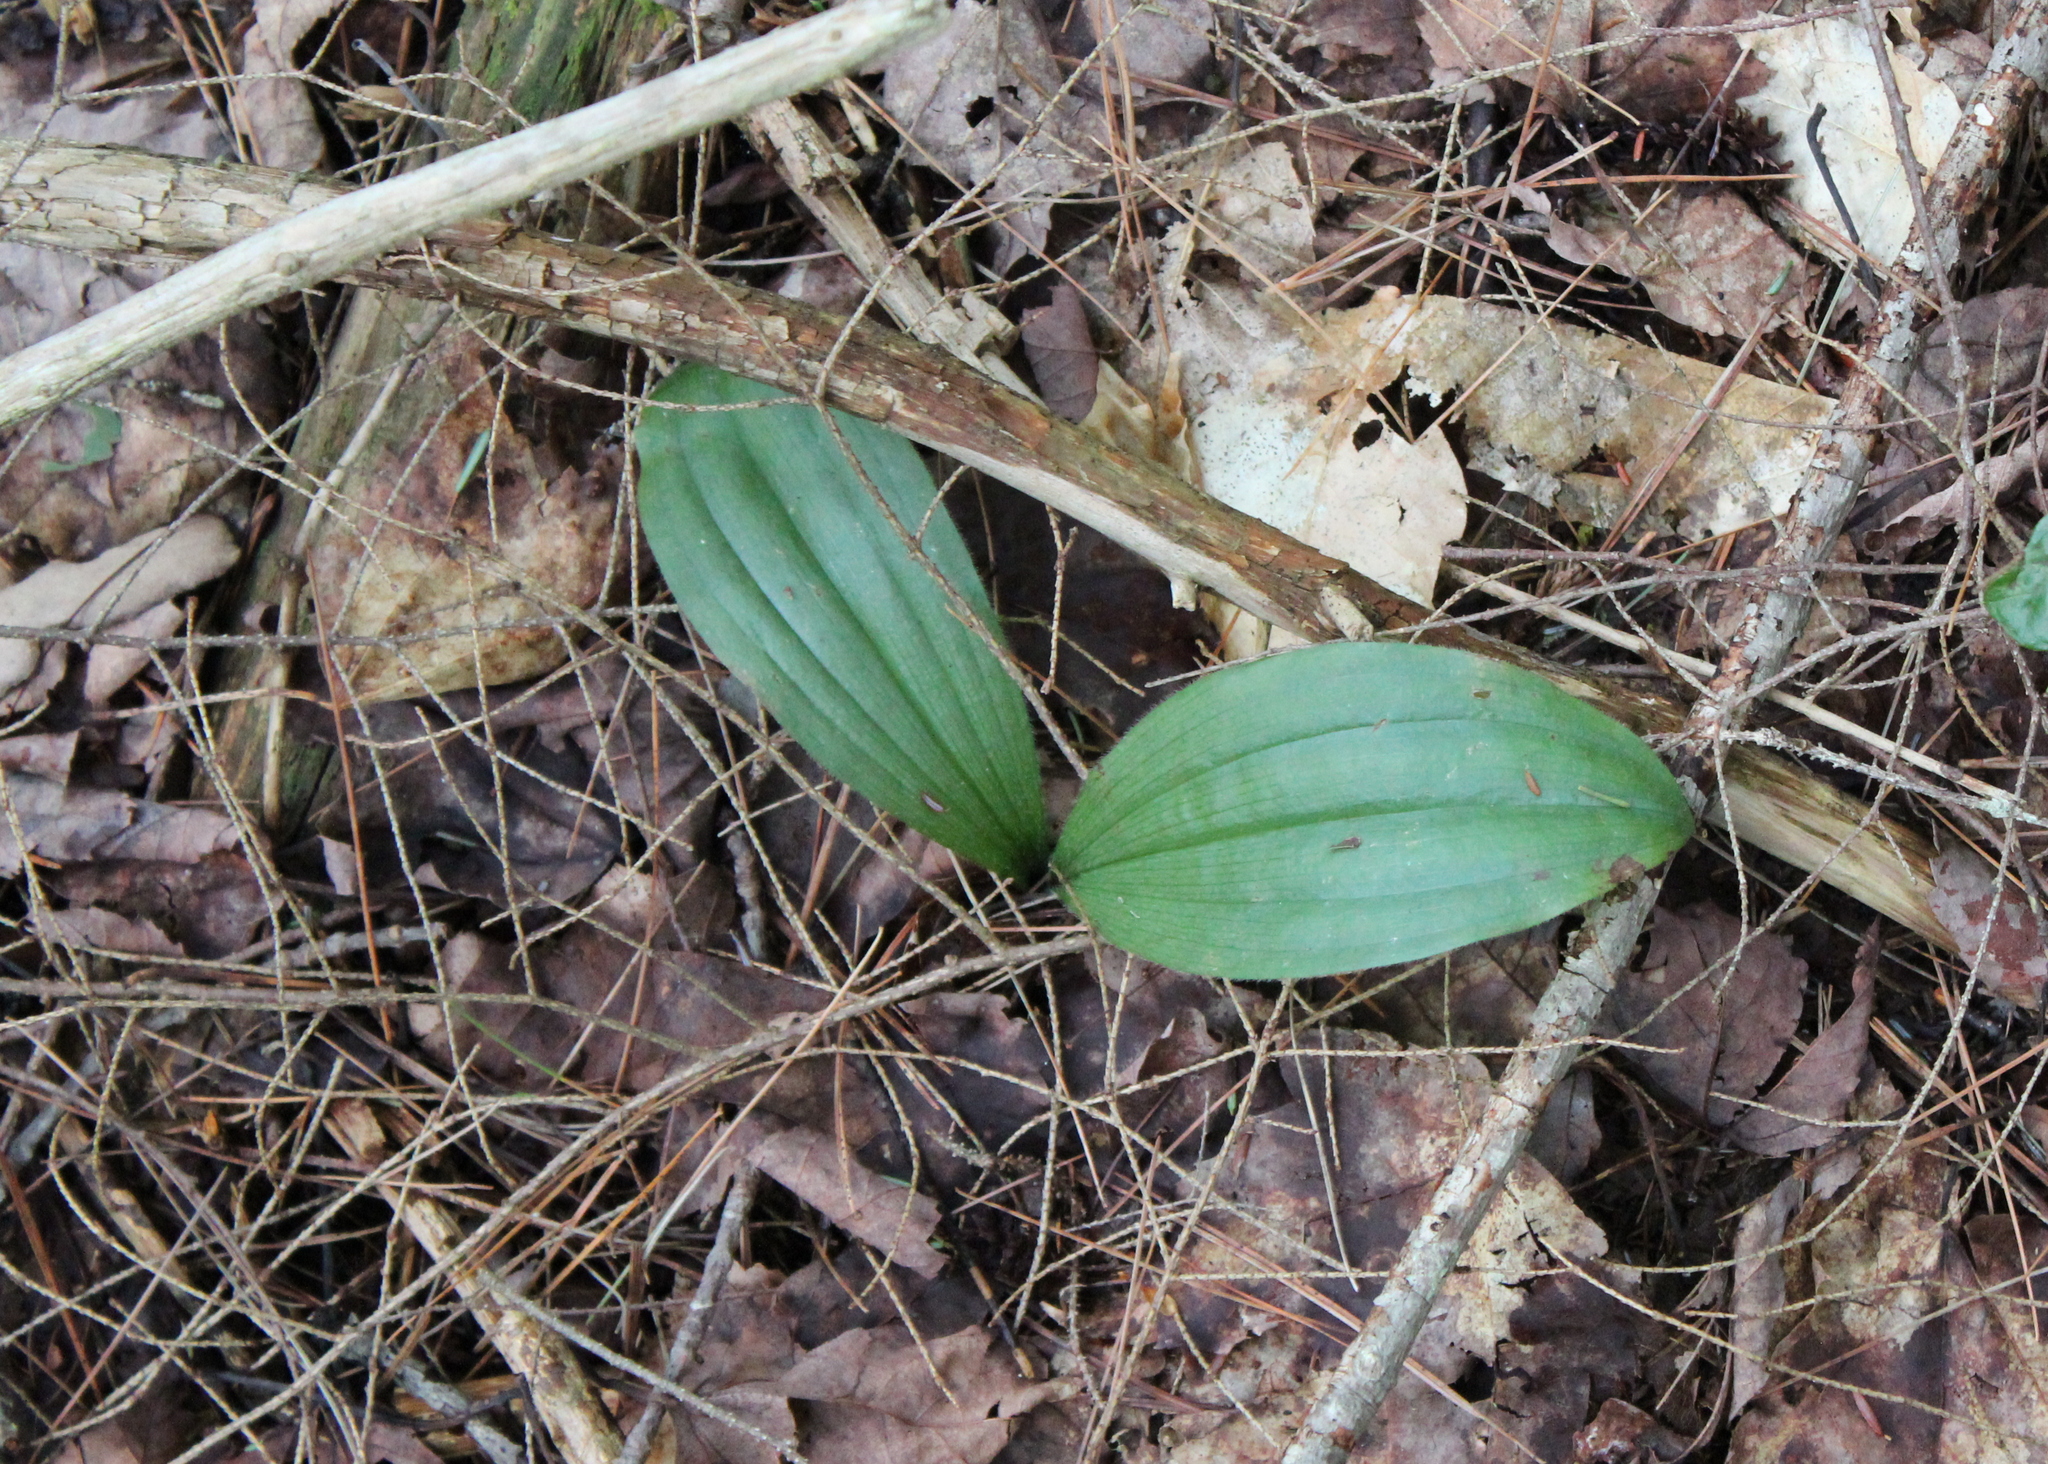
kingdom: Plantae
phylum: Tracheophyta
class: Liliopsida
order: Asparagales
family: Orchidaceae
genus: Cypripedium
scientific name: Cypripedium acaule
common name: Pink lady's-slipper
